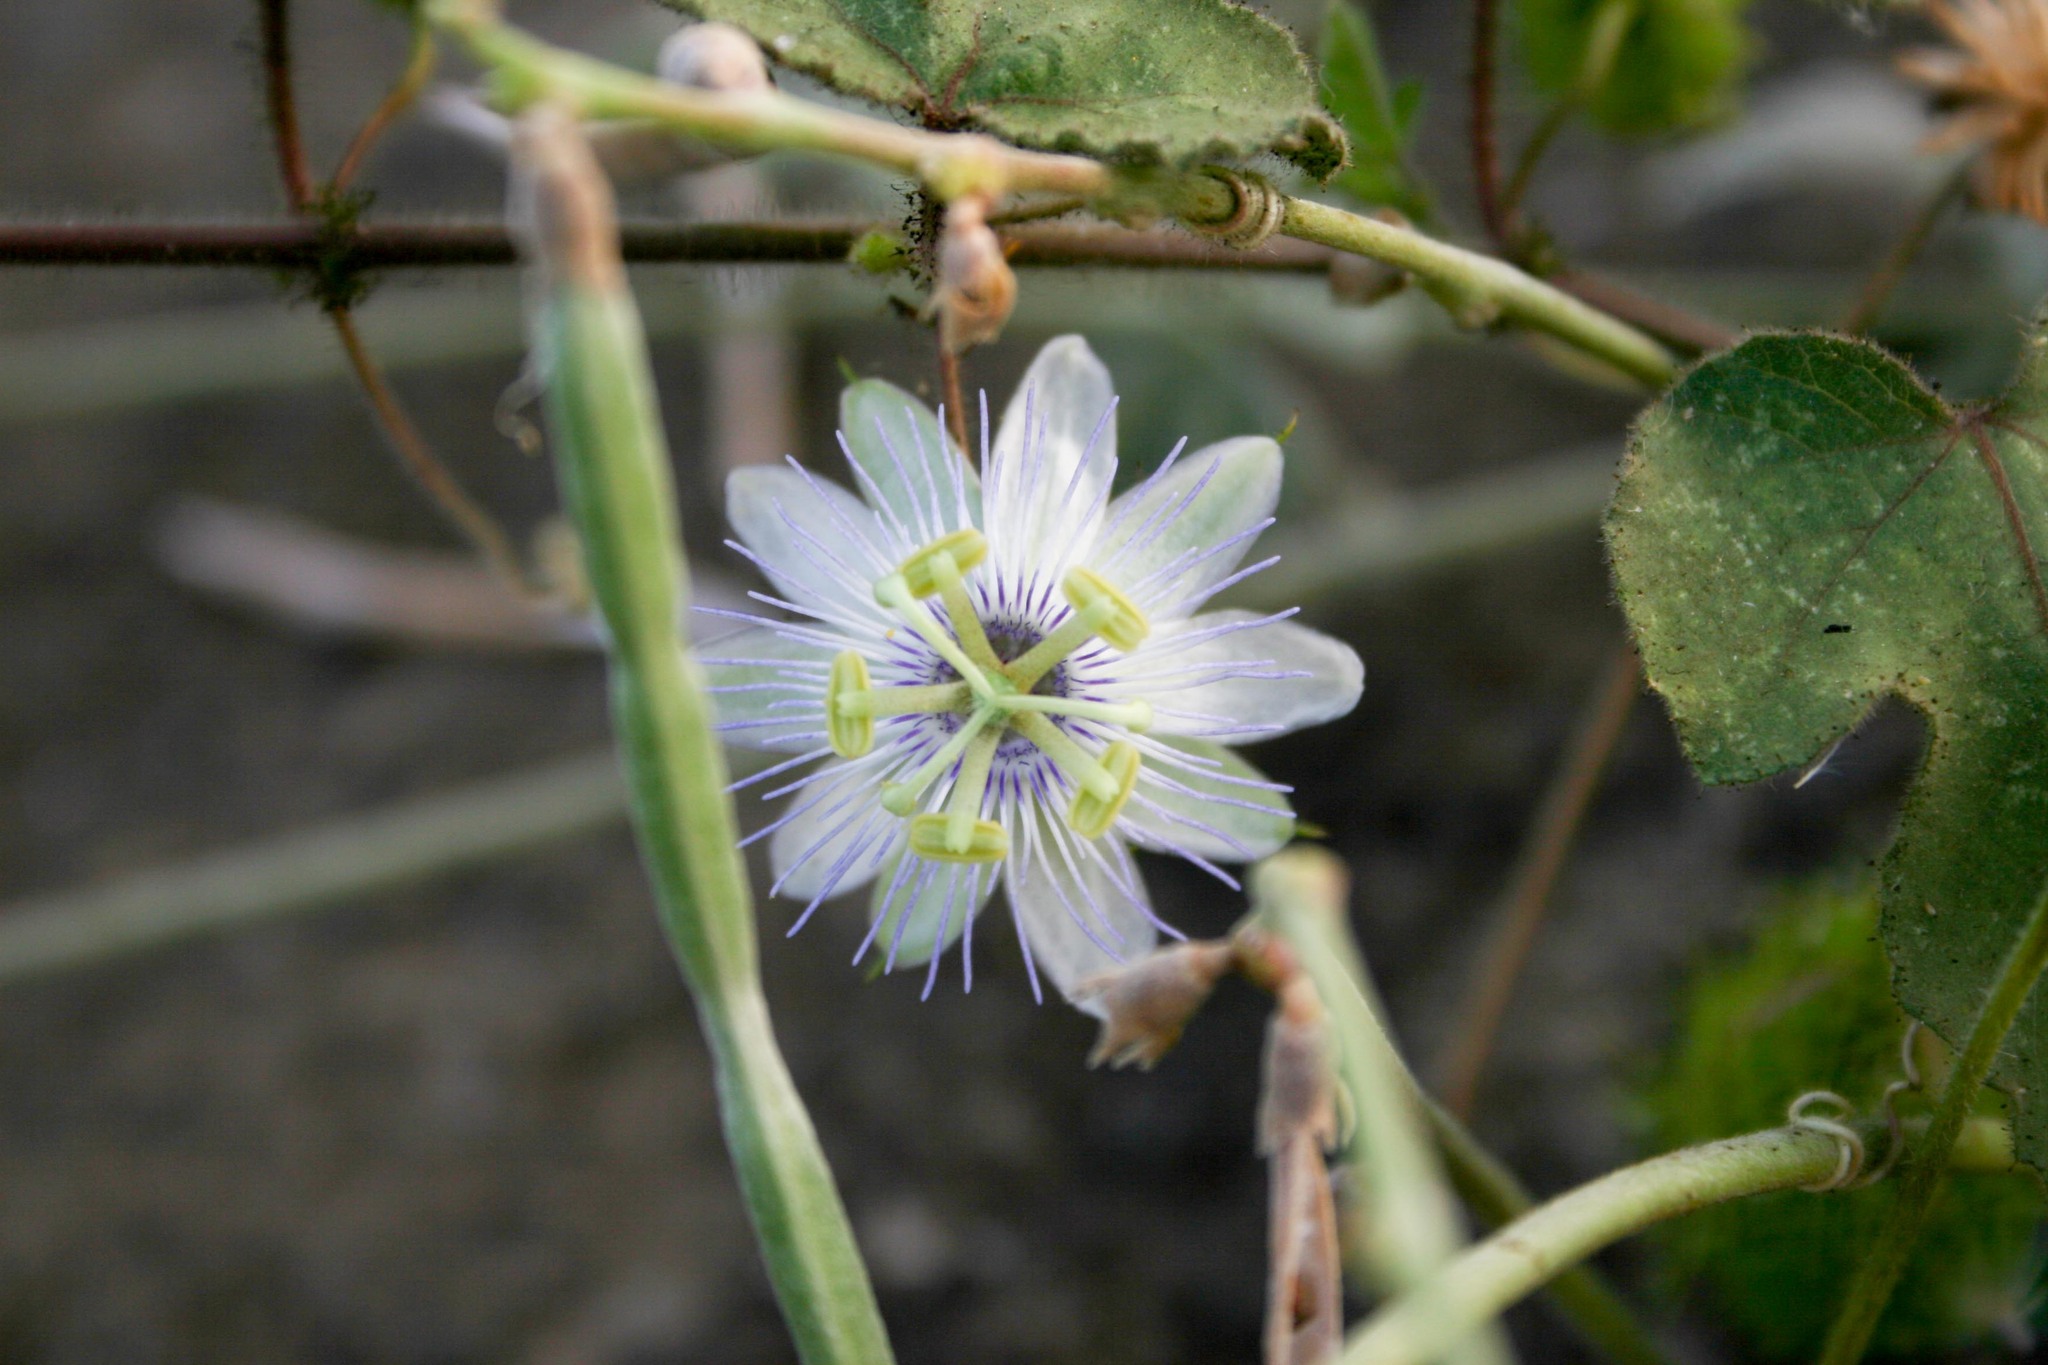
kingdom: Plantae
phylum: Tracheophyta
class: Magnoliopsida
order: Malpighiales
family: Passifloraceae
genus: Passiflora
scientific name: Passiflora foetida
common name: Fetid passionflower
